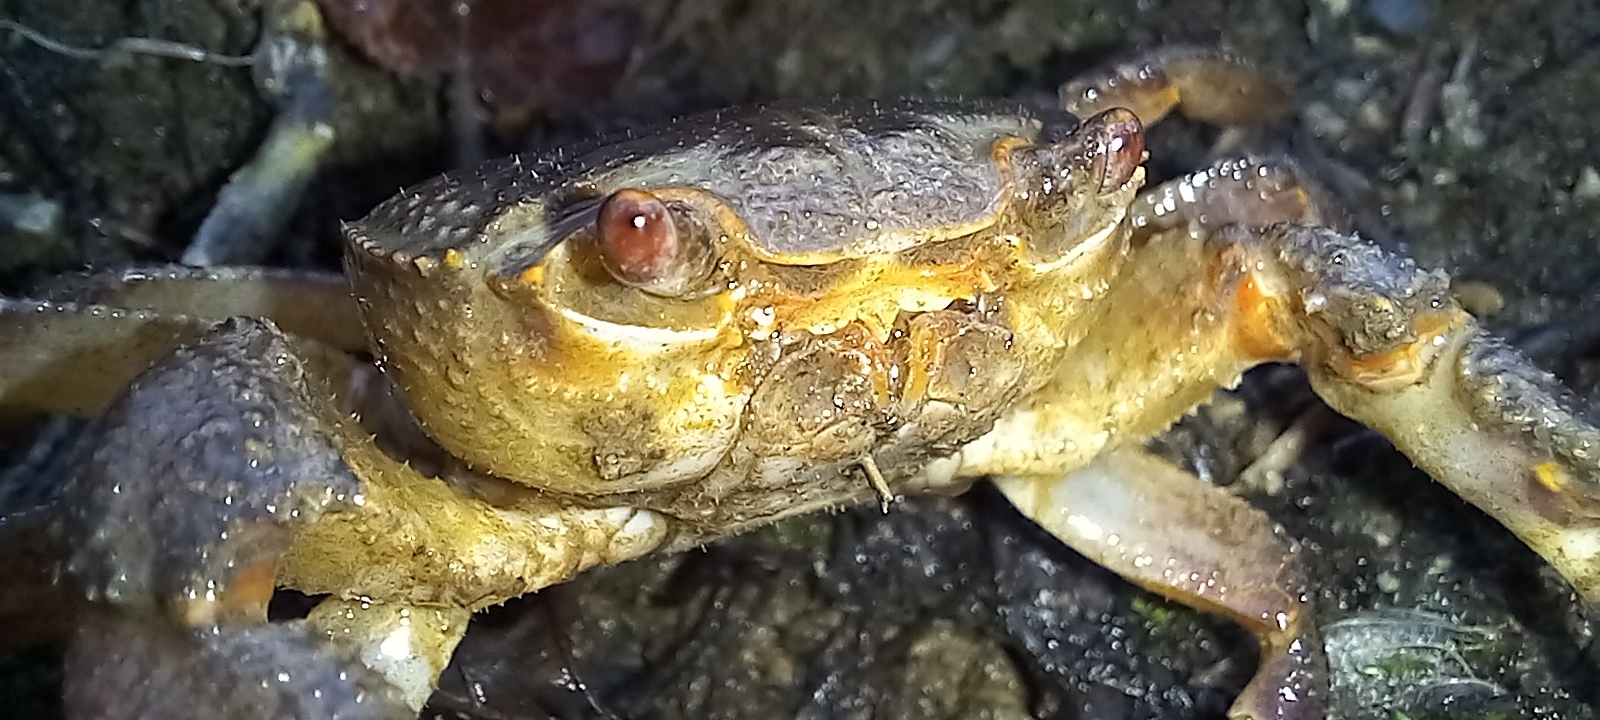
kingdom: Animalia
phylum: Arthropoda
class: Malacostraca
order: Decapoda
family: Potamidae
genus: Potamon
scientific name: Potamon fluviatile
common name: Italian freshwater crab
